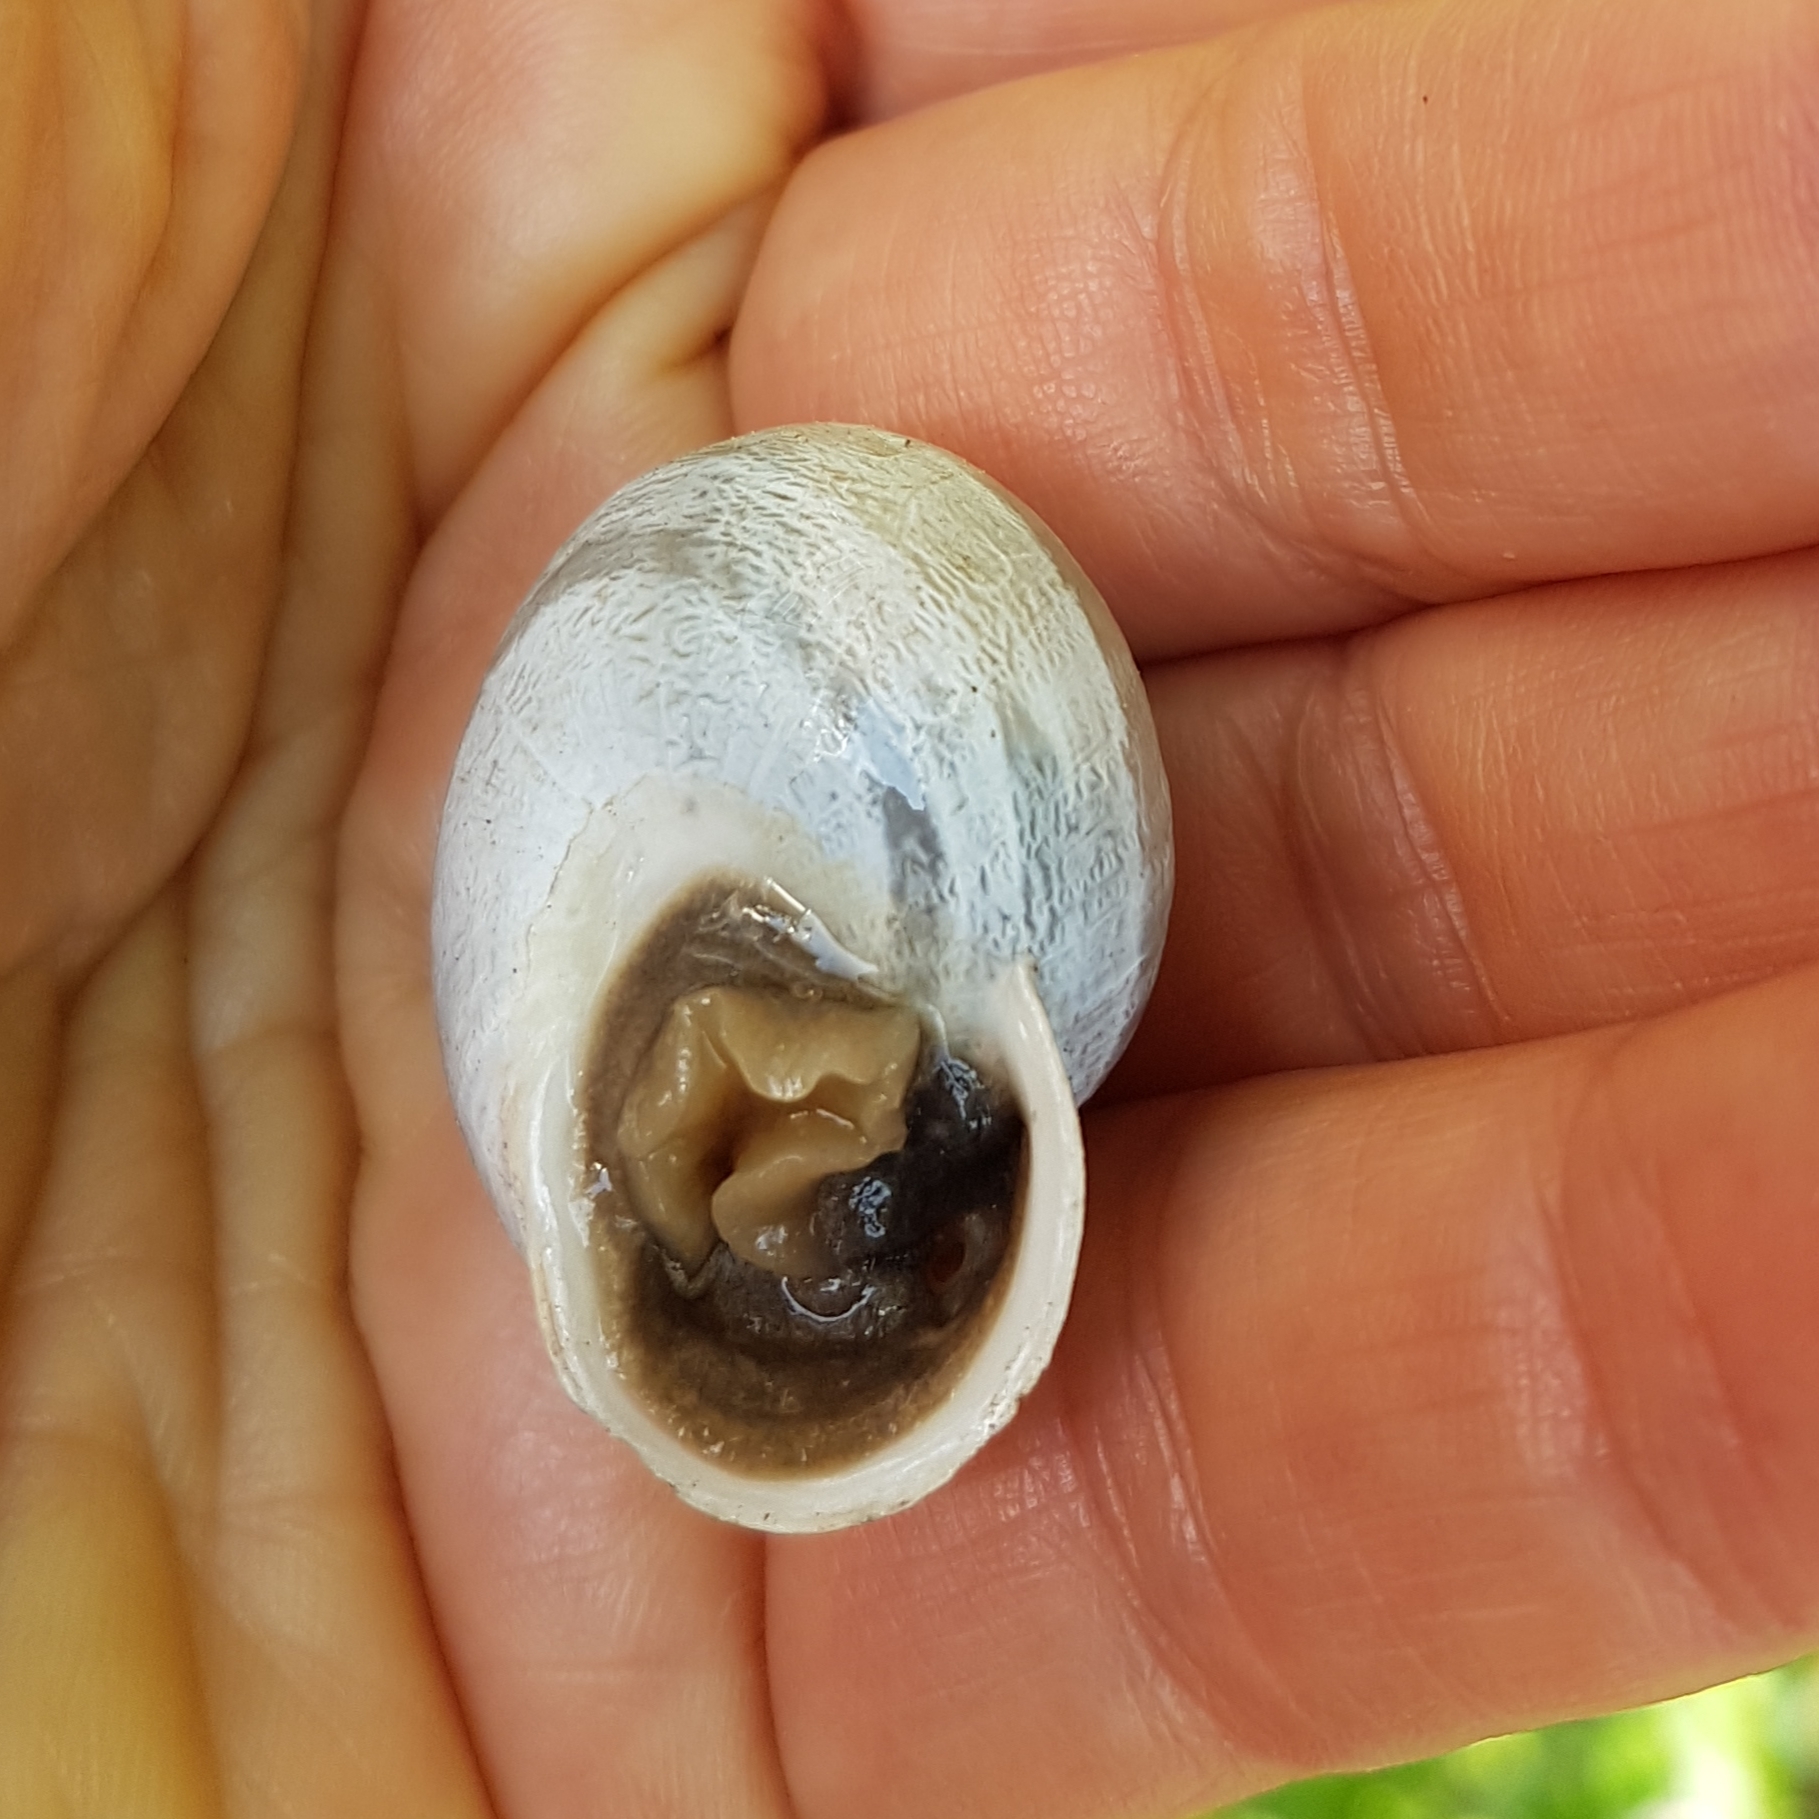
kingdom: Animalia
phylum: Mollusca
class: Gastropoda
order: Stylommatophora
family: Helicidae
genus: Eobania
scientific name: Eobania vermiculata
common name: Chocolateband snail
